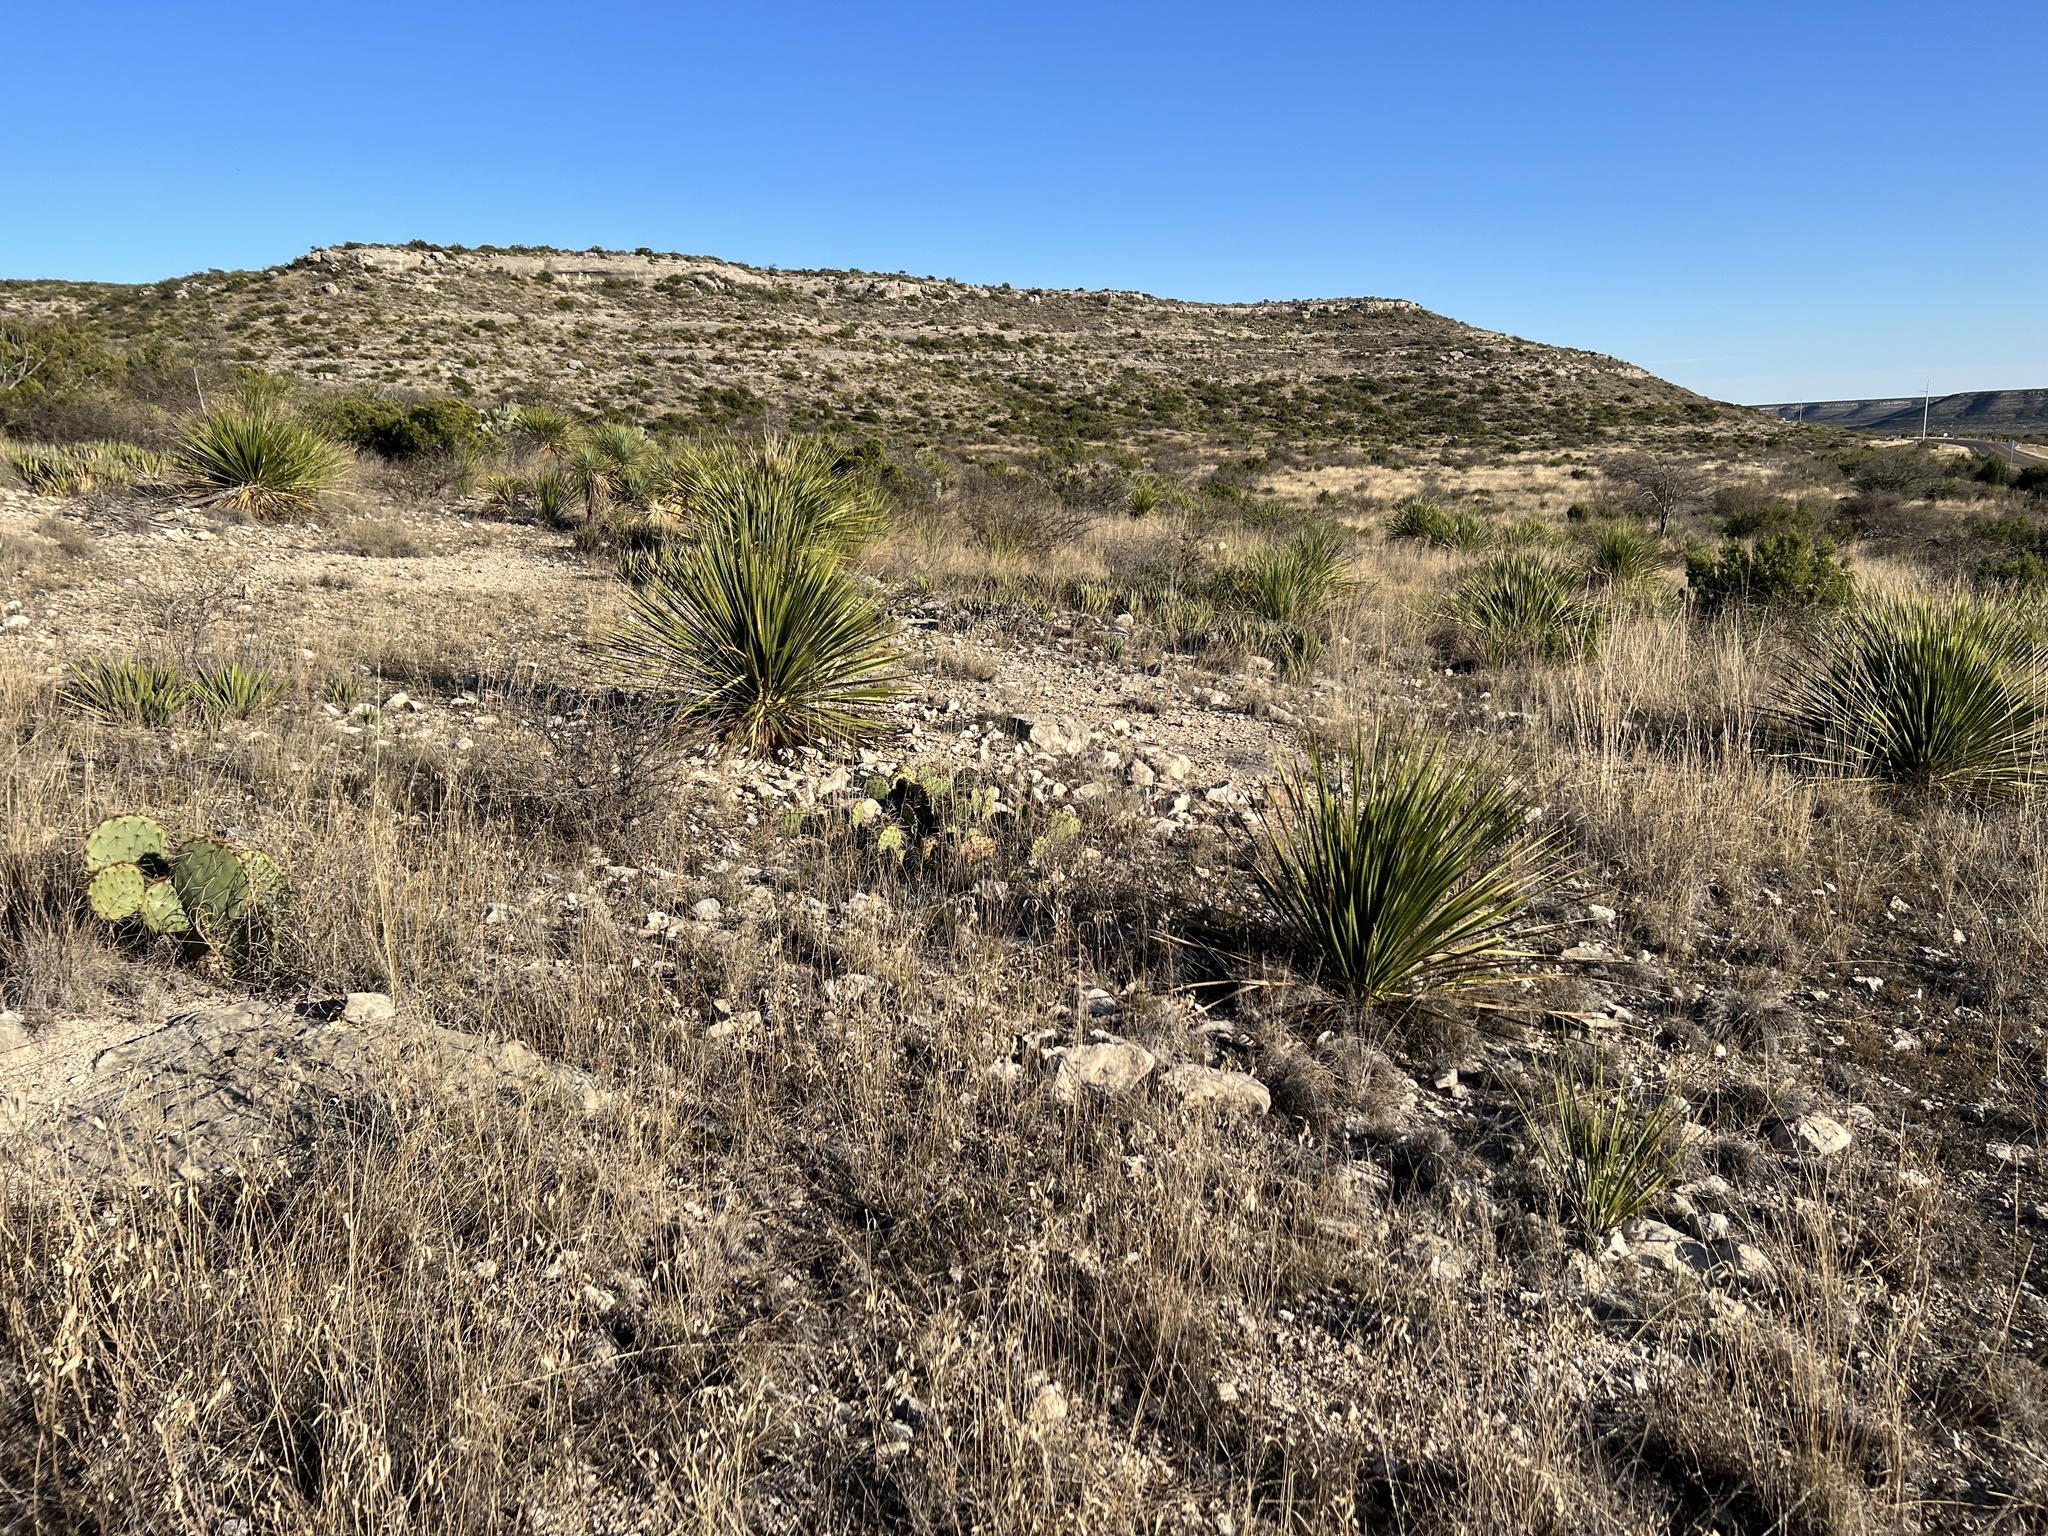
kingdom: Plantae
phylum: Tracheophyta
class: Liliopsida
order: Asparagales
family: Asparagaceae
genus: Dasylirion
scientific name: Dasylirion texanum
